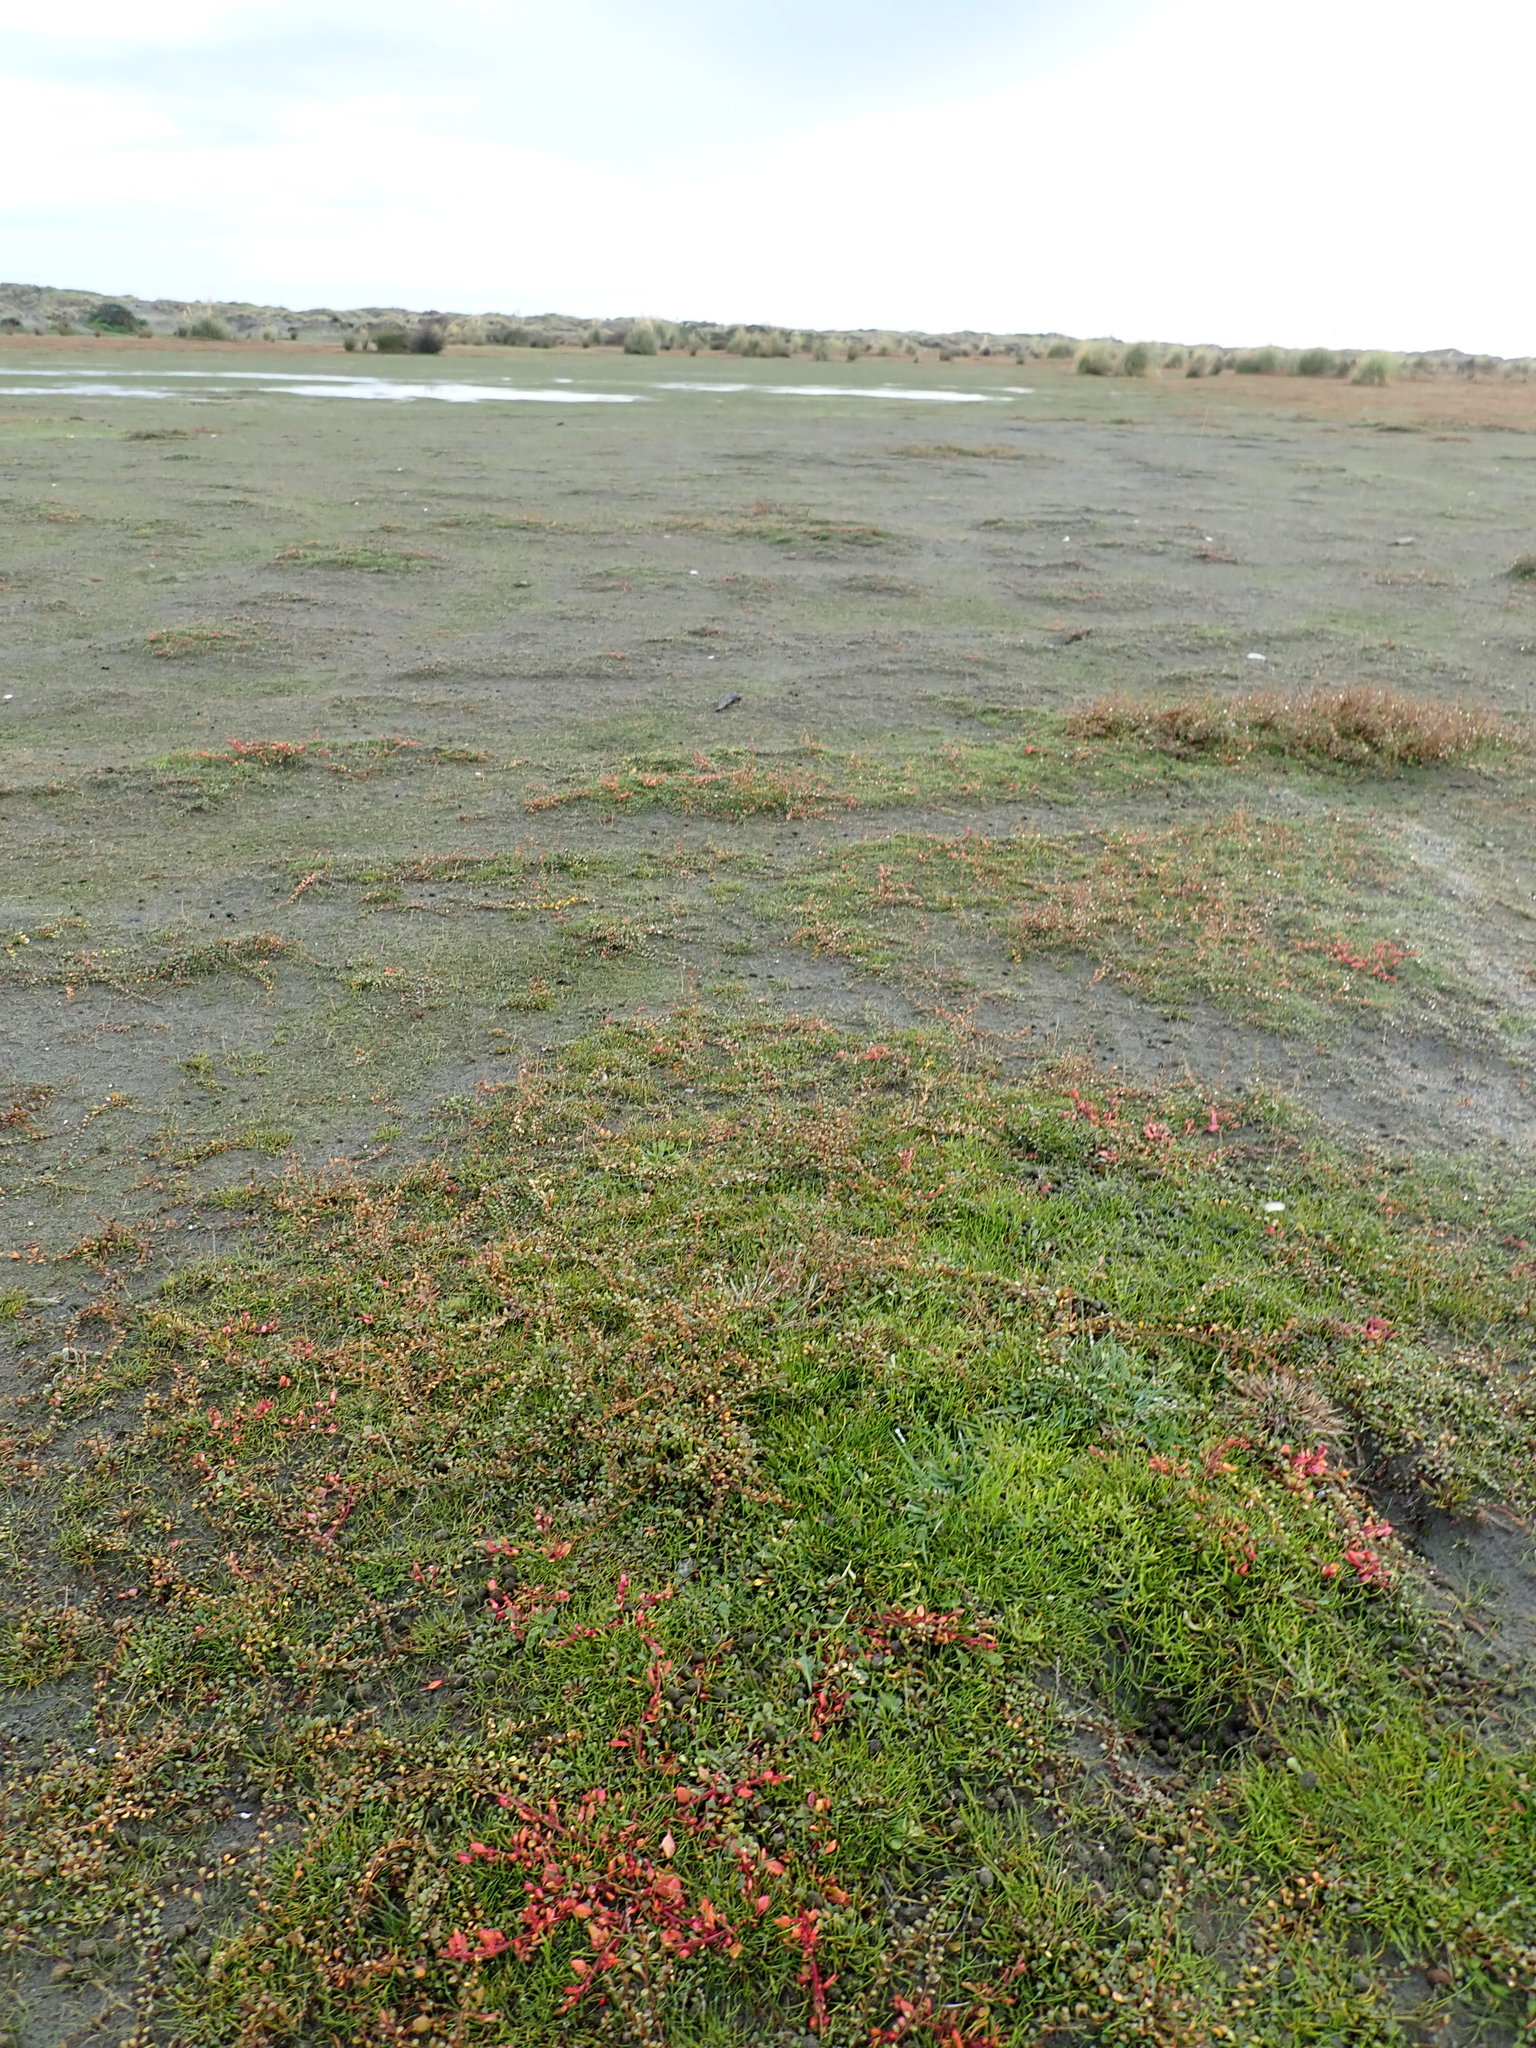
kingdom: Plantae
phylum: Tracheophyta
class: Magnoliopsida
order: Caryophyllales
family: Amaranthaceae
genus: Oxybasis
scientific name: Oxybasis ambigua
